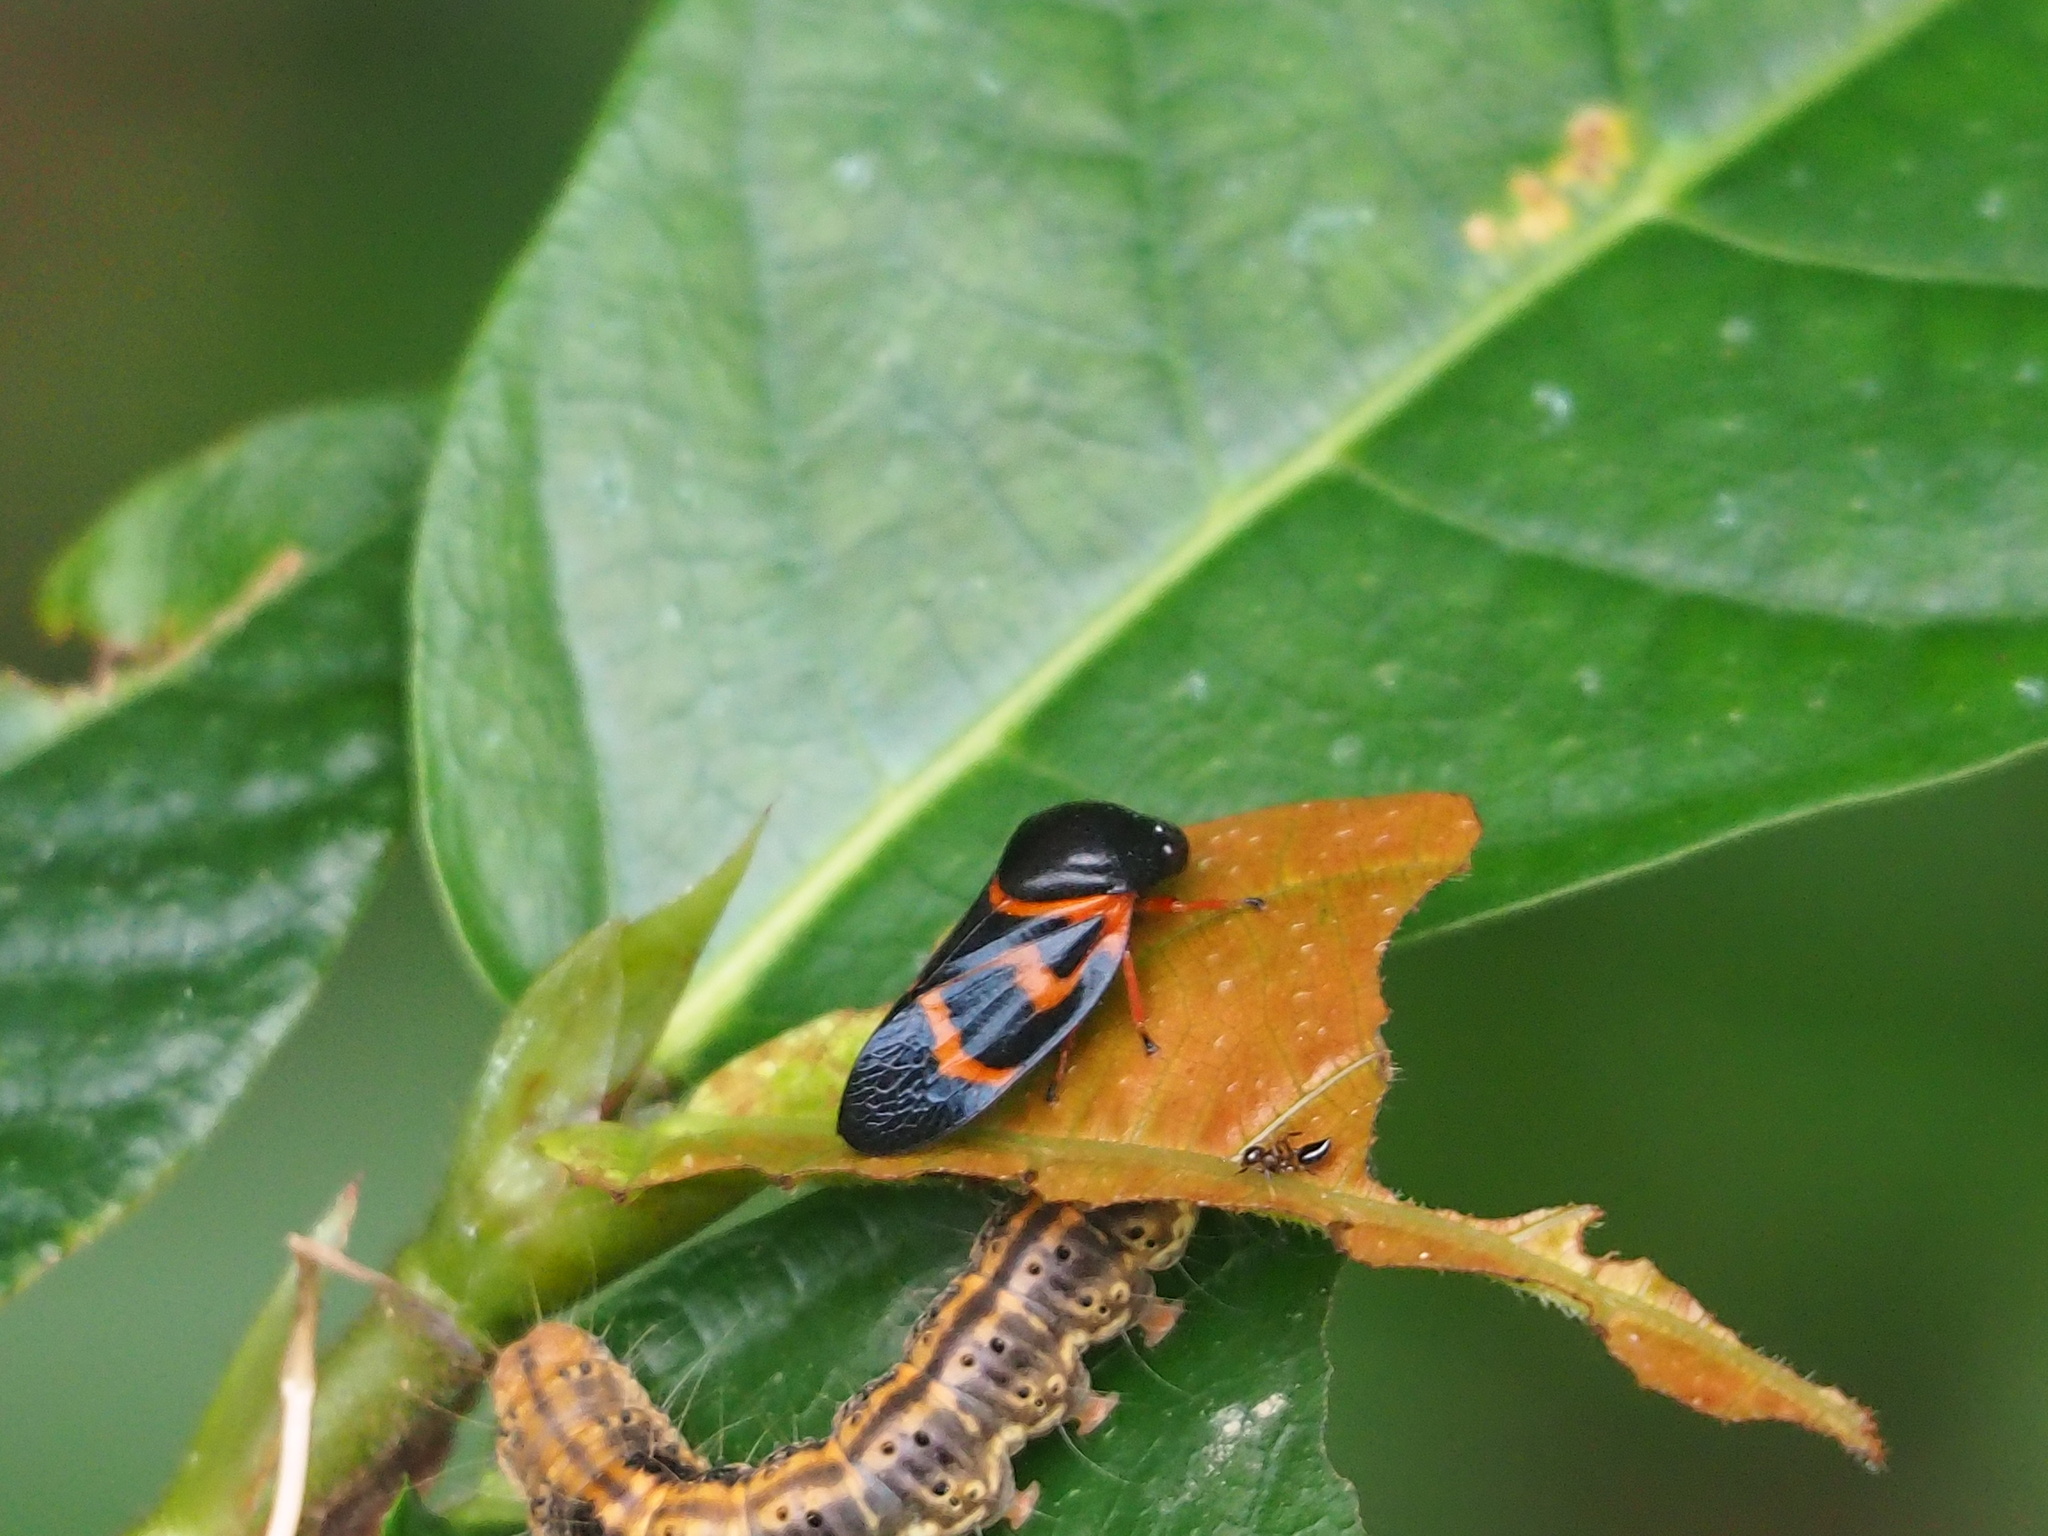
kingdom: Animalia
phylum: Arthropoda
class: Insecta
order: Hemiptera
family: Cercopidae
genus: Okiscarta
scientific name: Okiscarta uchidae
